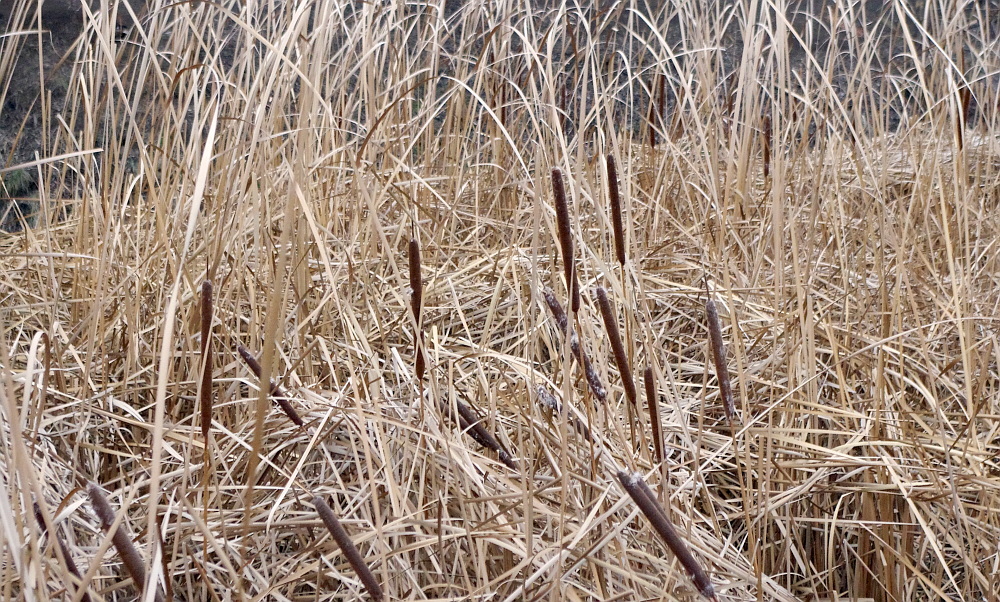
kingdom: Plantae
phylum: Tracheophyta
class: Liliopsida
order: Poales
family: Typhaceae
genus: Typha
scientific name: Typha angustifolia
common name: Lesser bulrush
